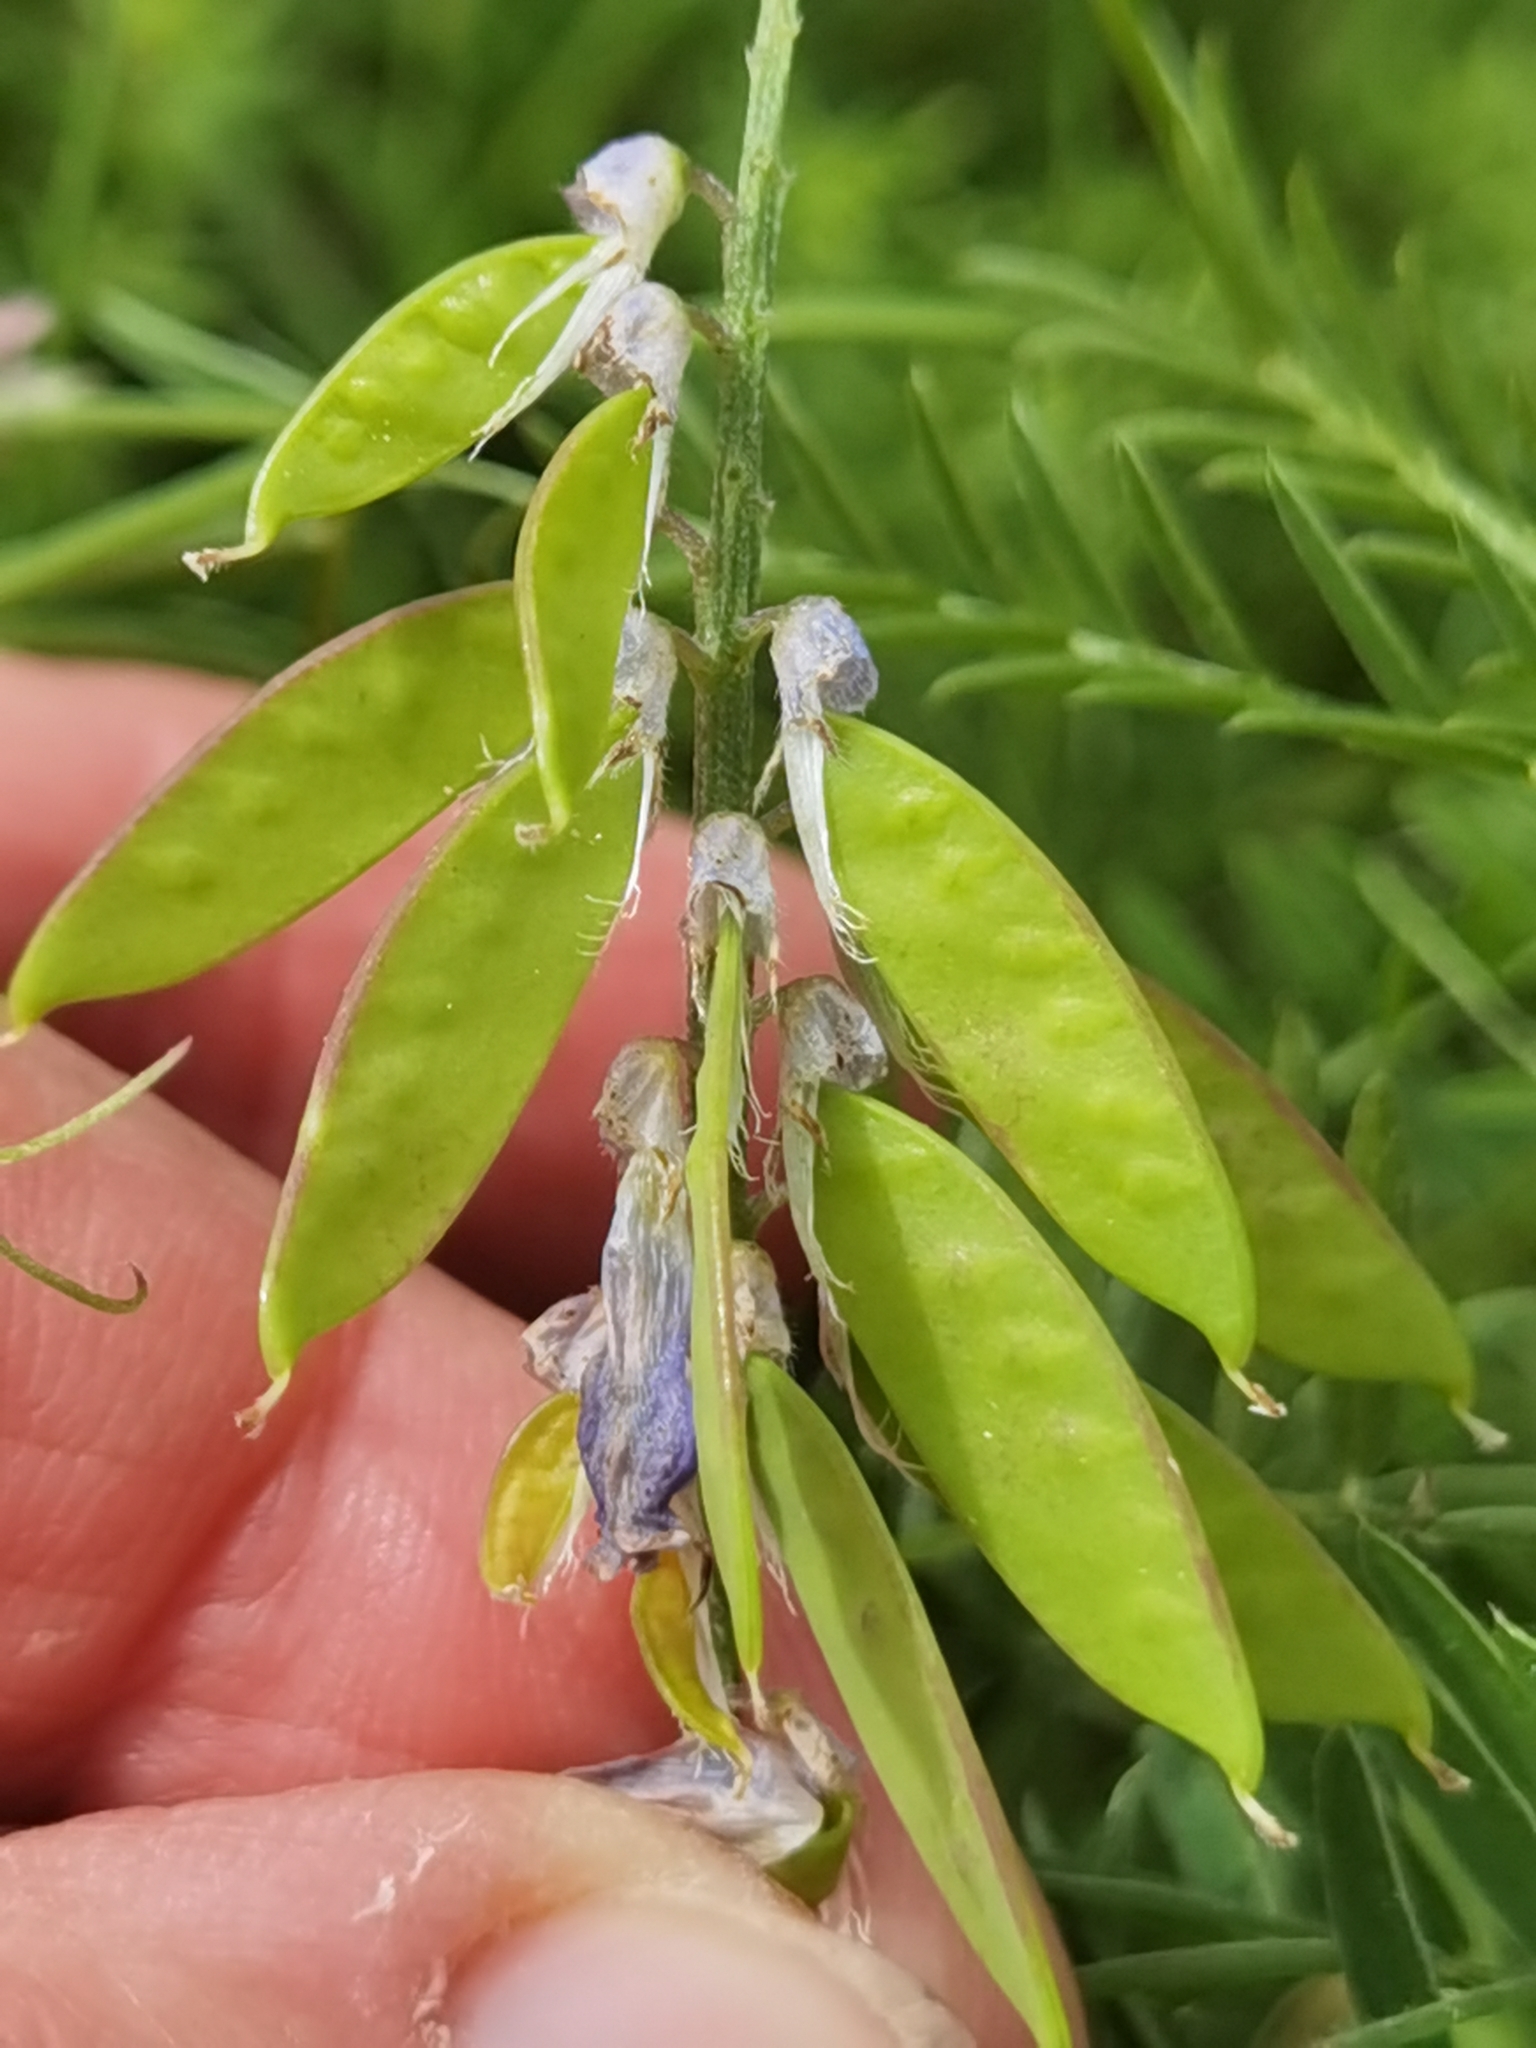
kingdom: Plantae
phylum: Tracheophyta
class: Magnoliopsida
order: Fabales
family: Fabaceae
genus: Vicia
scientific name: Vicia cracca
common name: Bird vetch
